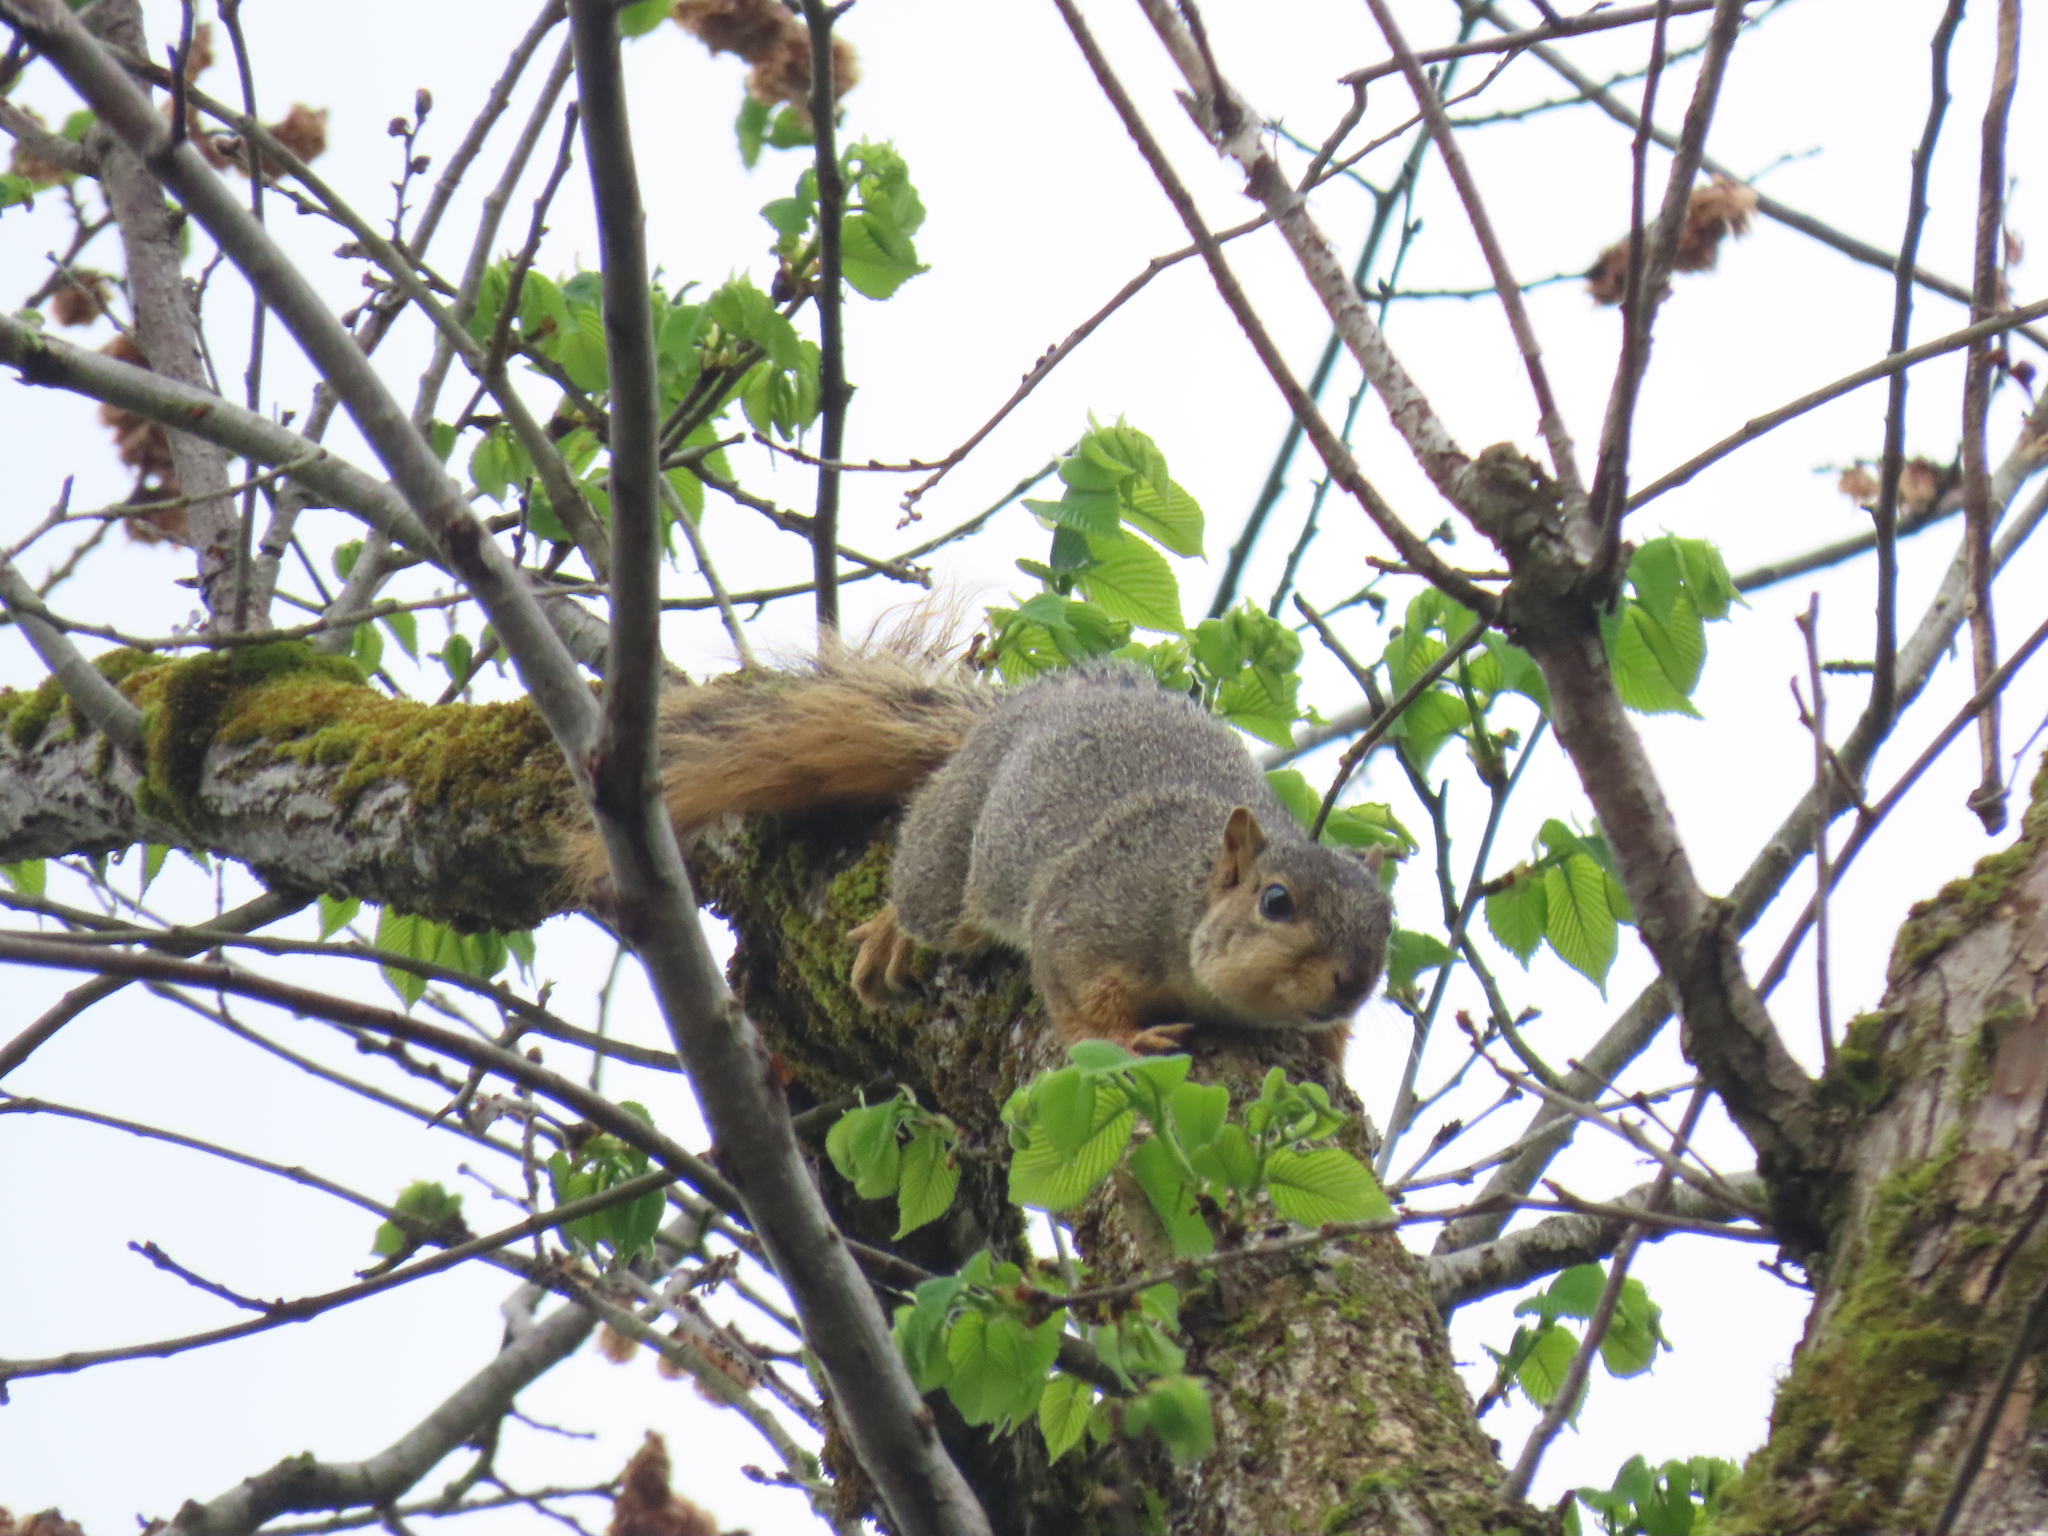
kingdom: Animalia
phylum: Chordata
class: Mammalia
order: Rodentia
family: Sciuridae
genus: Sciurus
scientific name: Sciurus niger
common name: Fox squirrel
